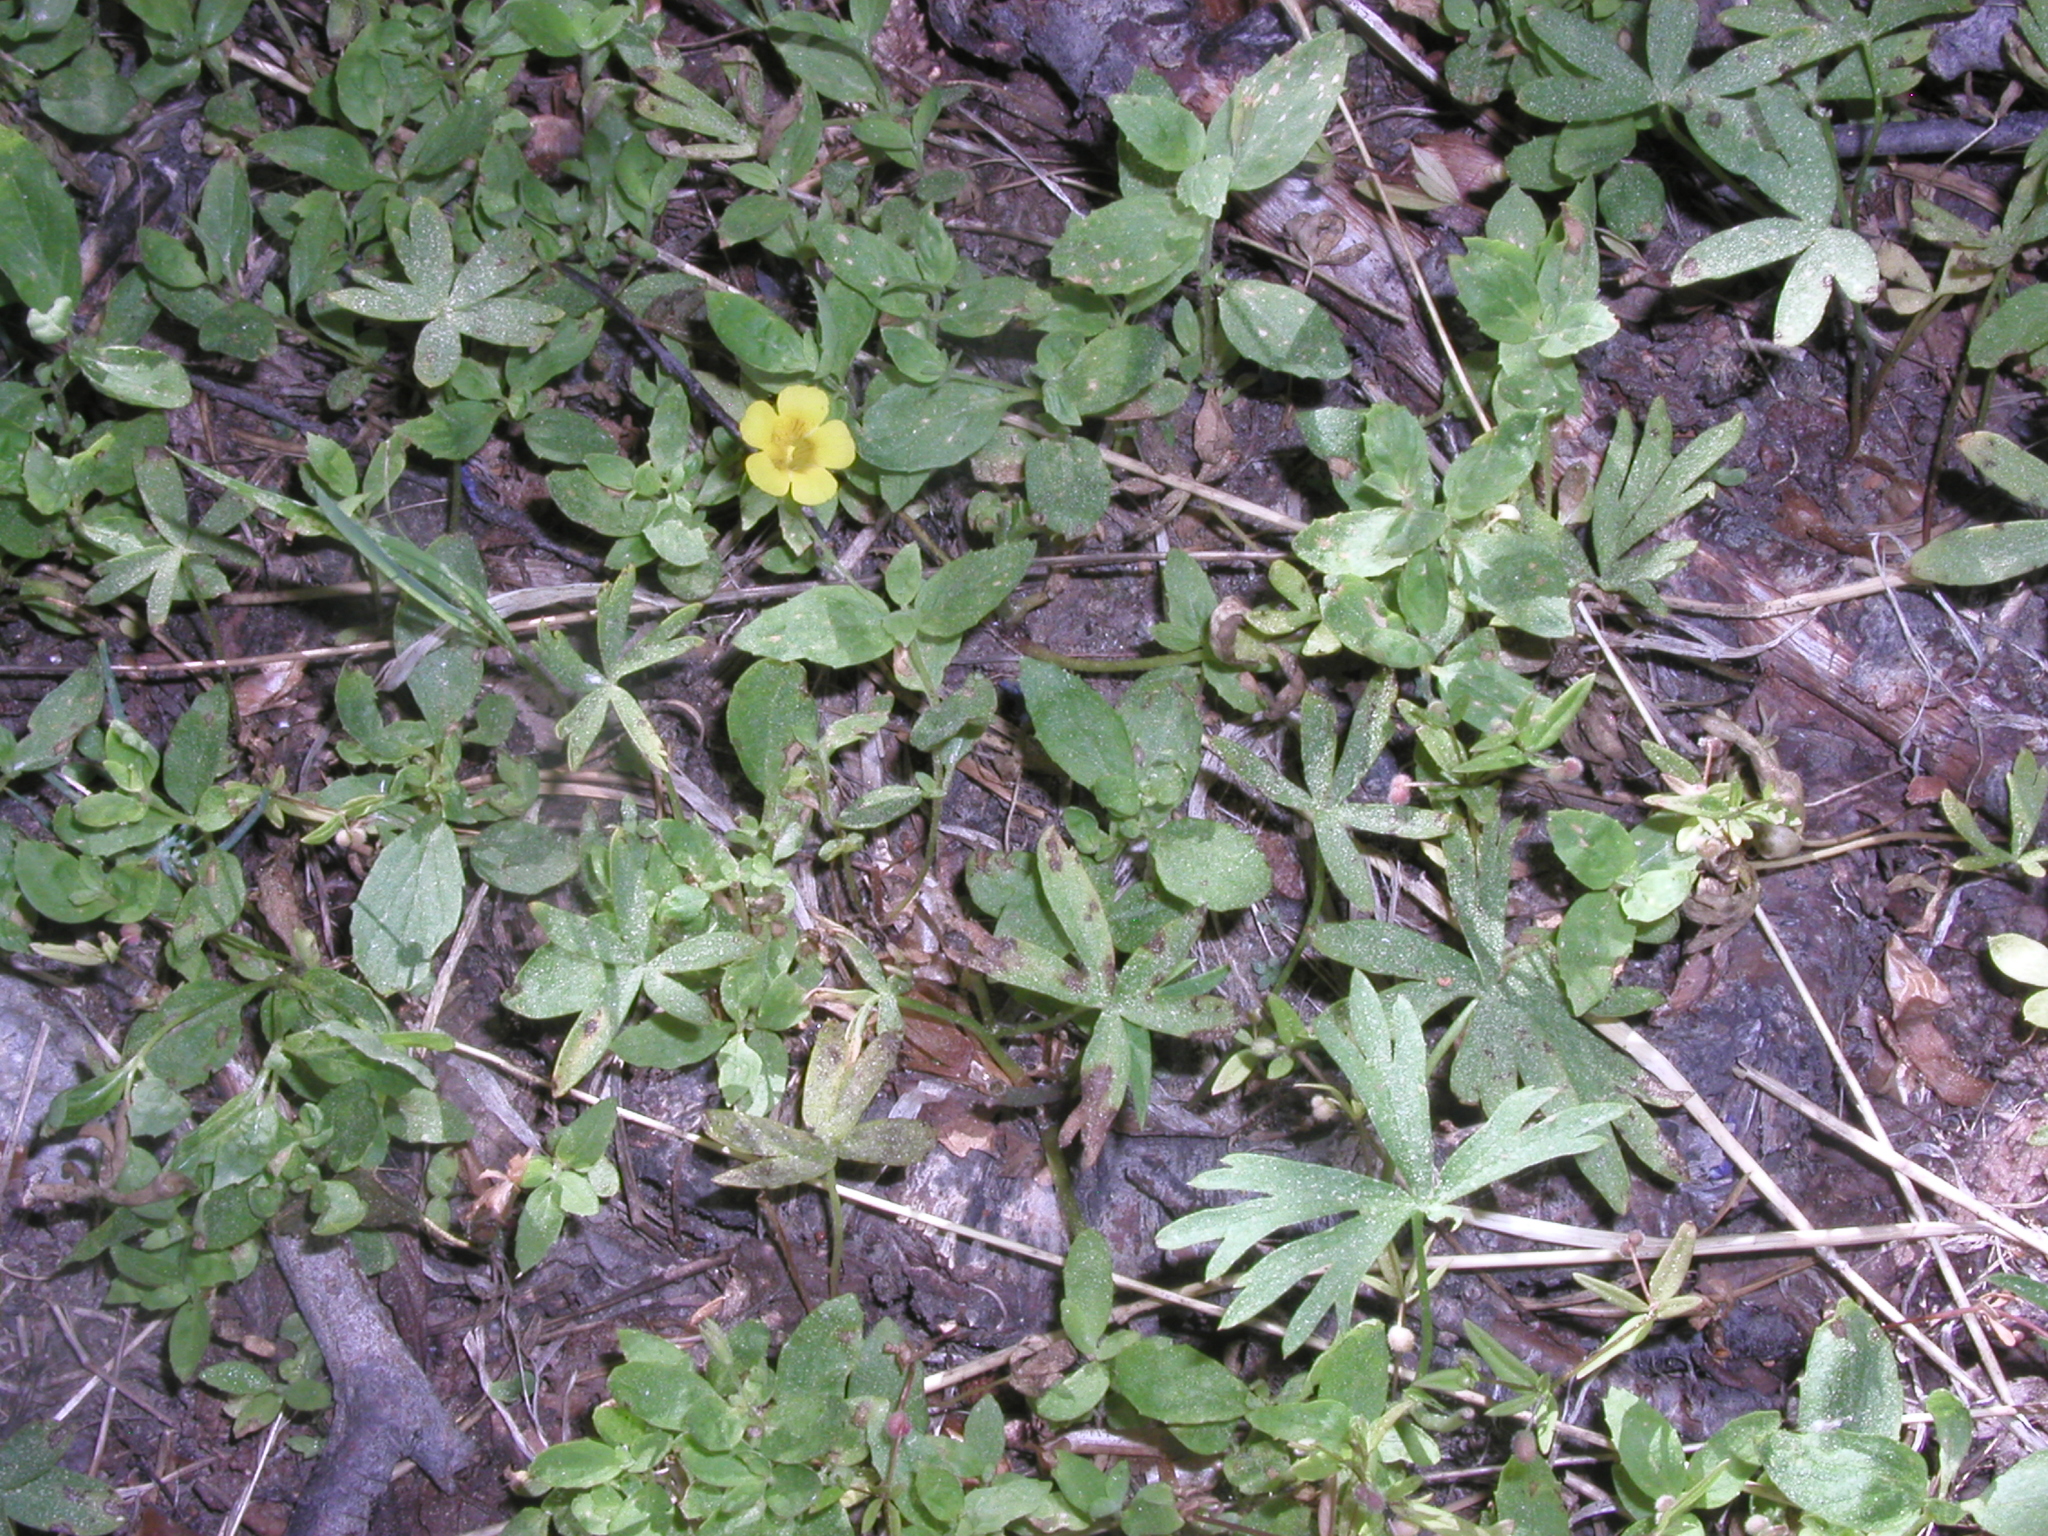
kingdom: Plantae
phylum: Tracheophyta
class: Magnoliopsida
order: Lamiales
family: Phrymaceae
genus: Erythranthe
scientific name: Erythranthe moschata
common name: Muskflower
